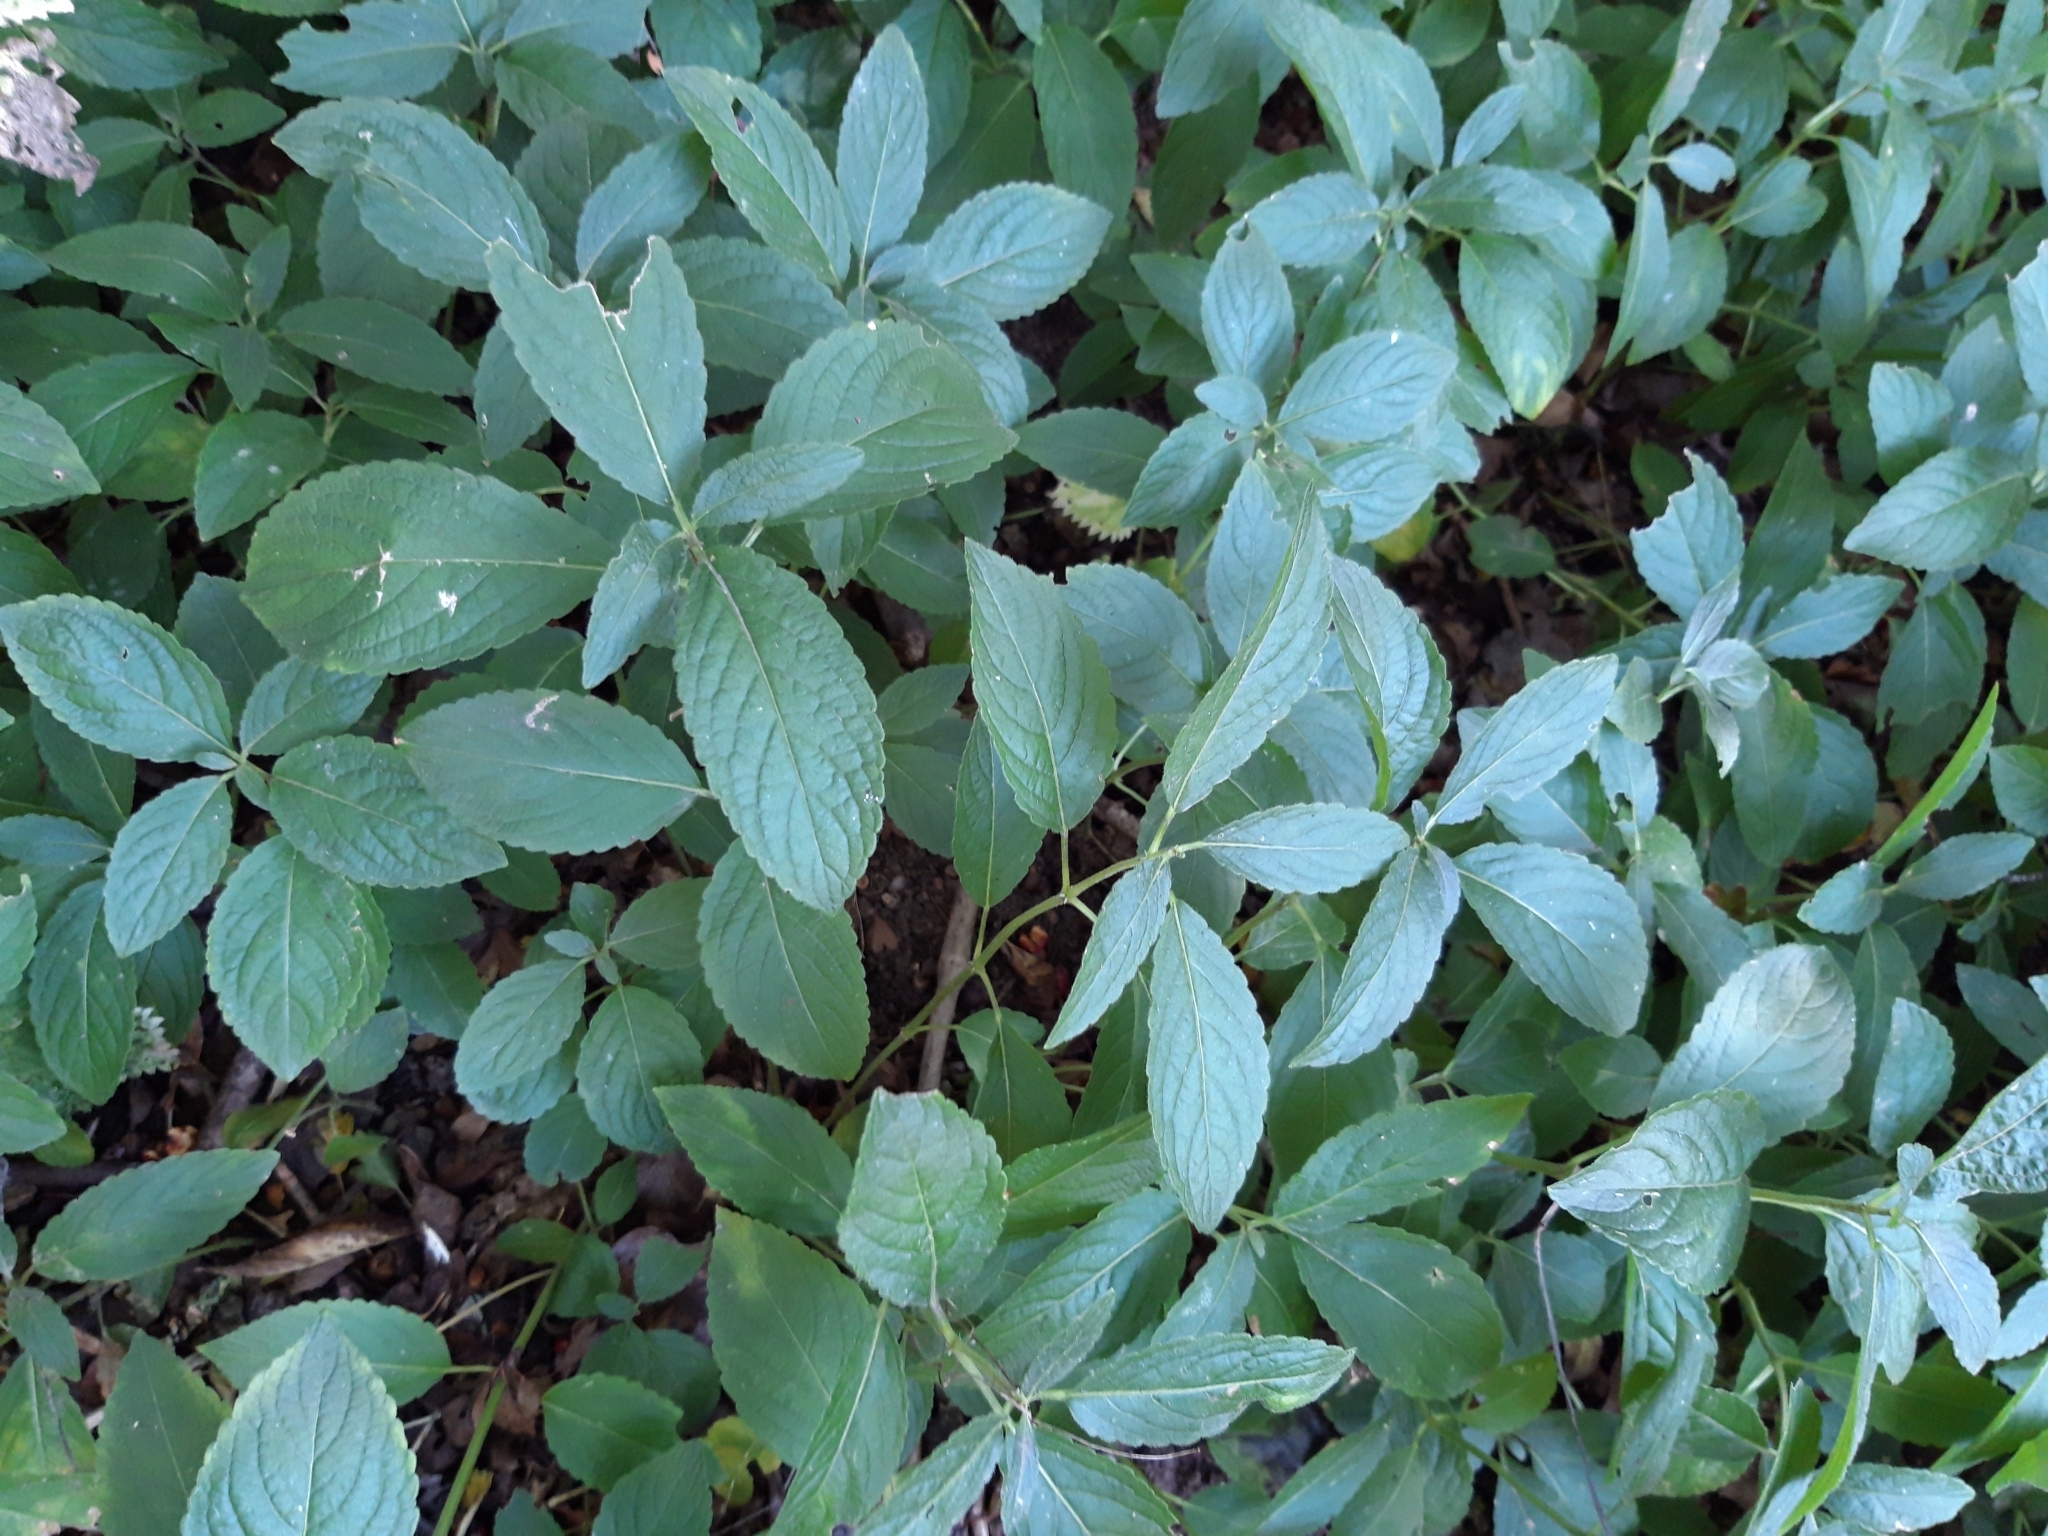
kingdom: Plantae
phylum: Tracheophyta
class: Magnoliopsida
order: Malpighiales
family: Euphorbiaceae
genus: Mercurialis
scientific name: Mercurialis perennis
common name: Dog mercury
